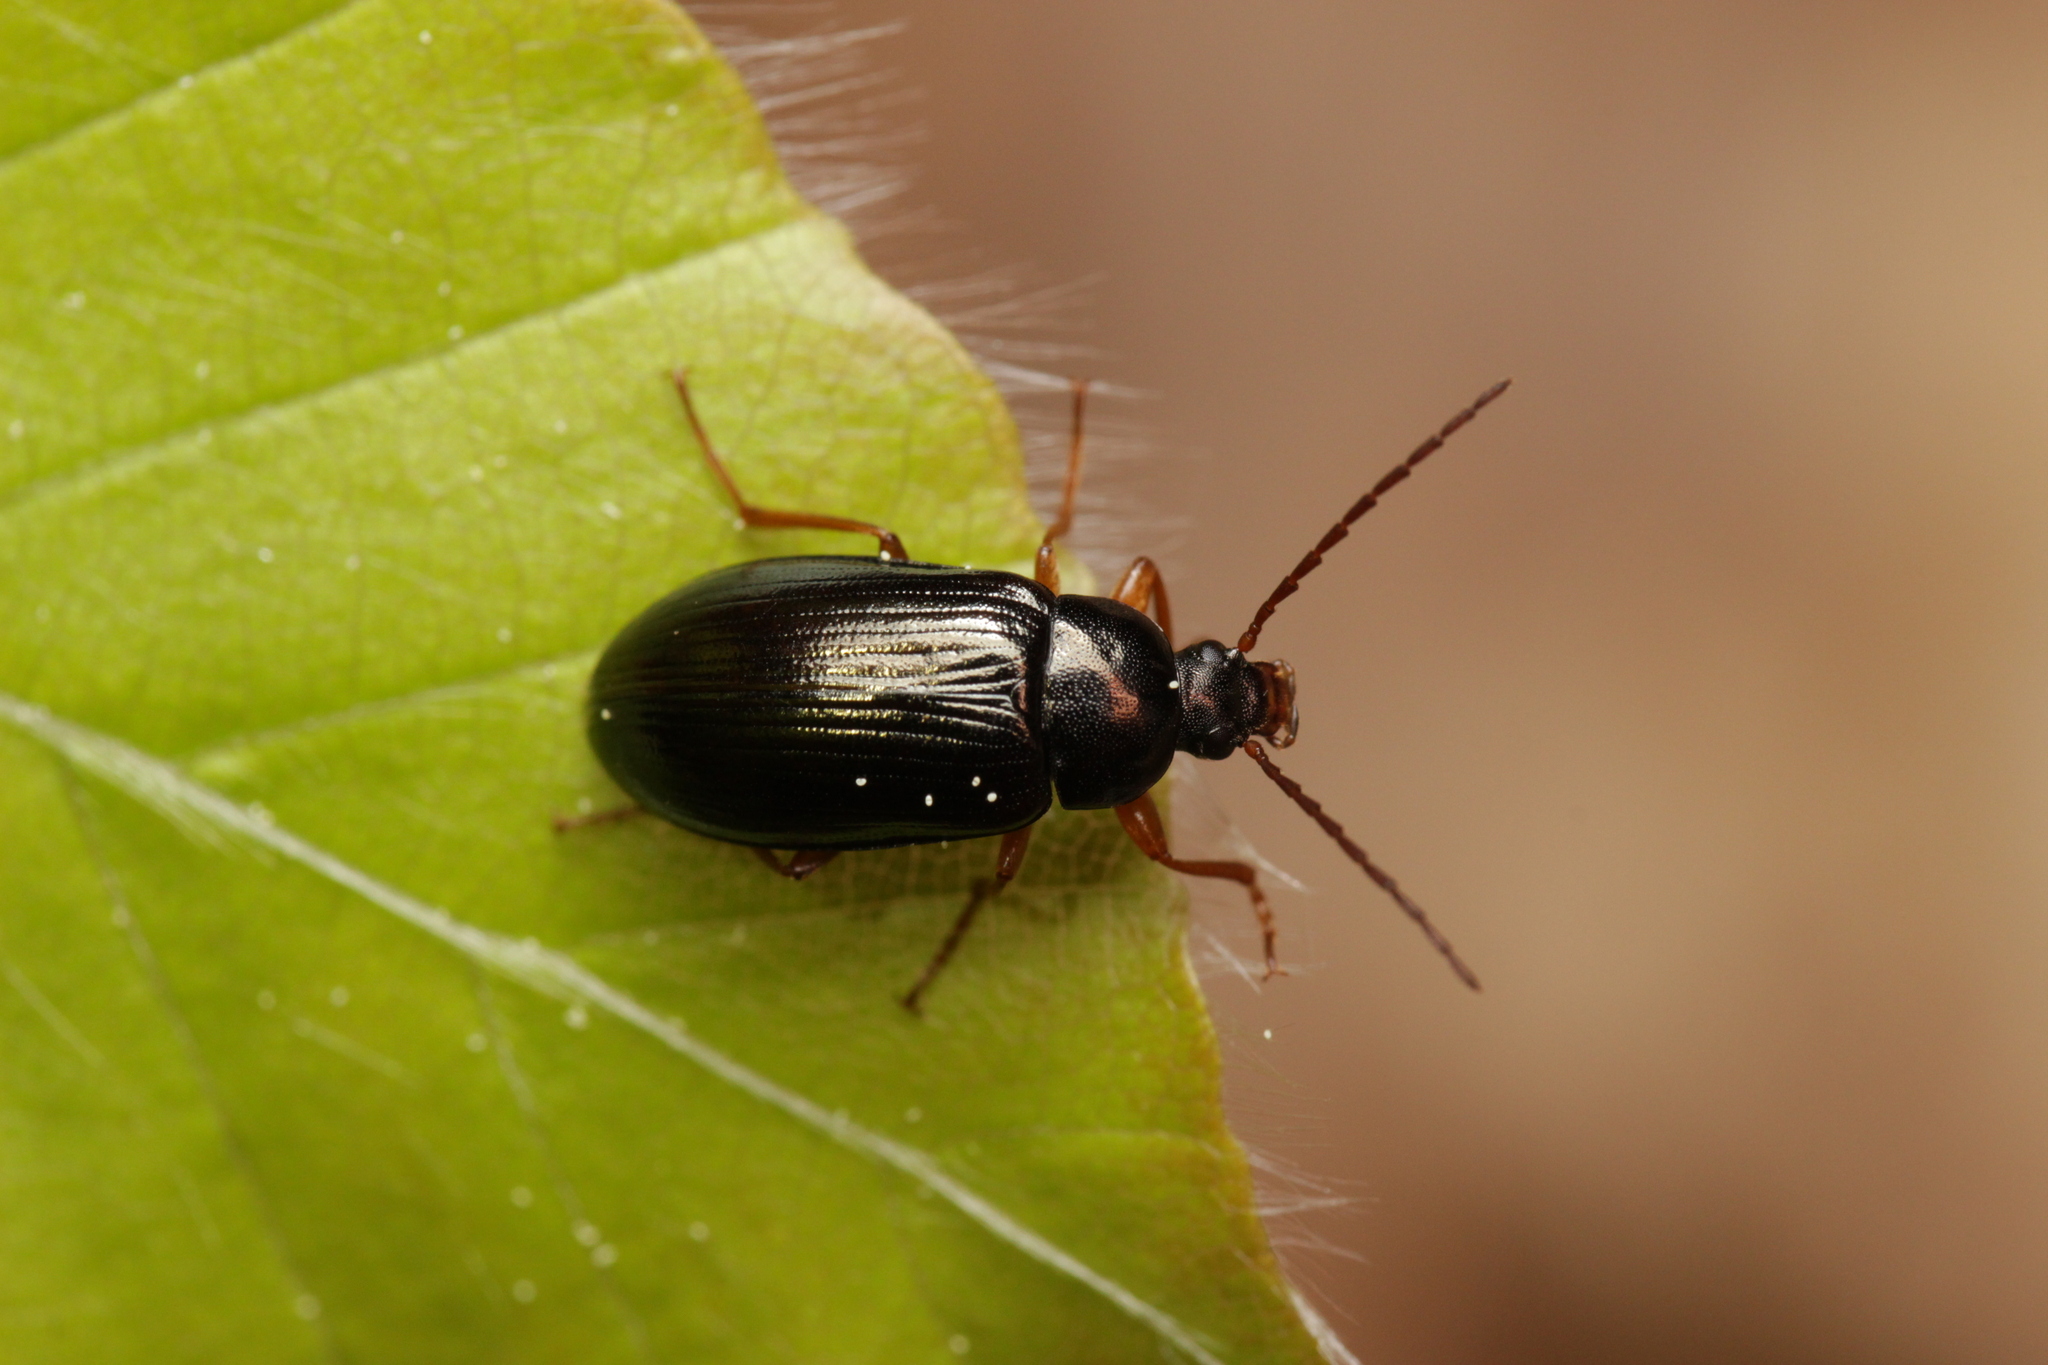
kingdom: Animalia
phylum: Arthropoda
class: Insecta
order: Coleoptera
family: Tenebrionidae
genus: Gonodera
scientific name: Gonodera luperus
